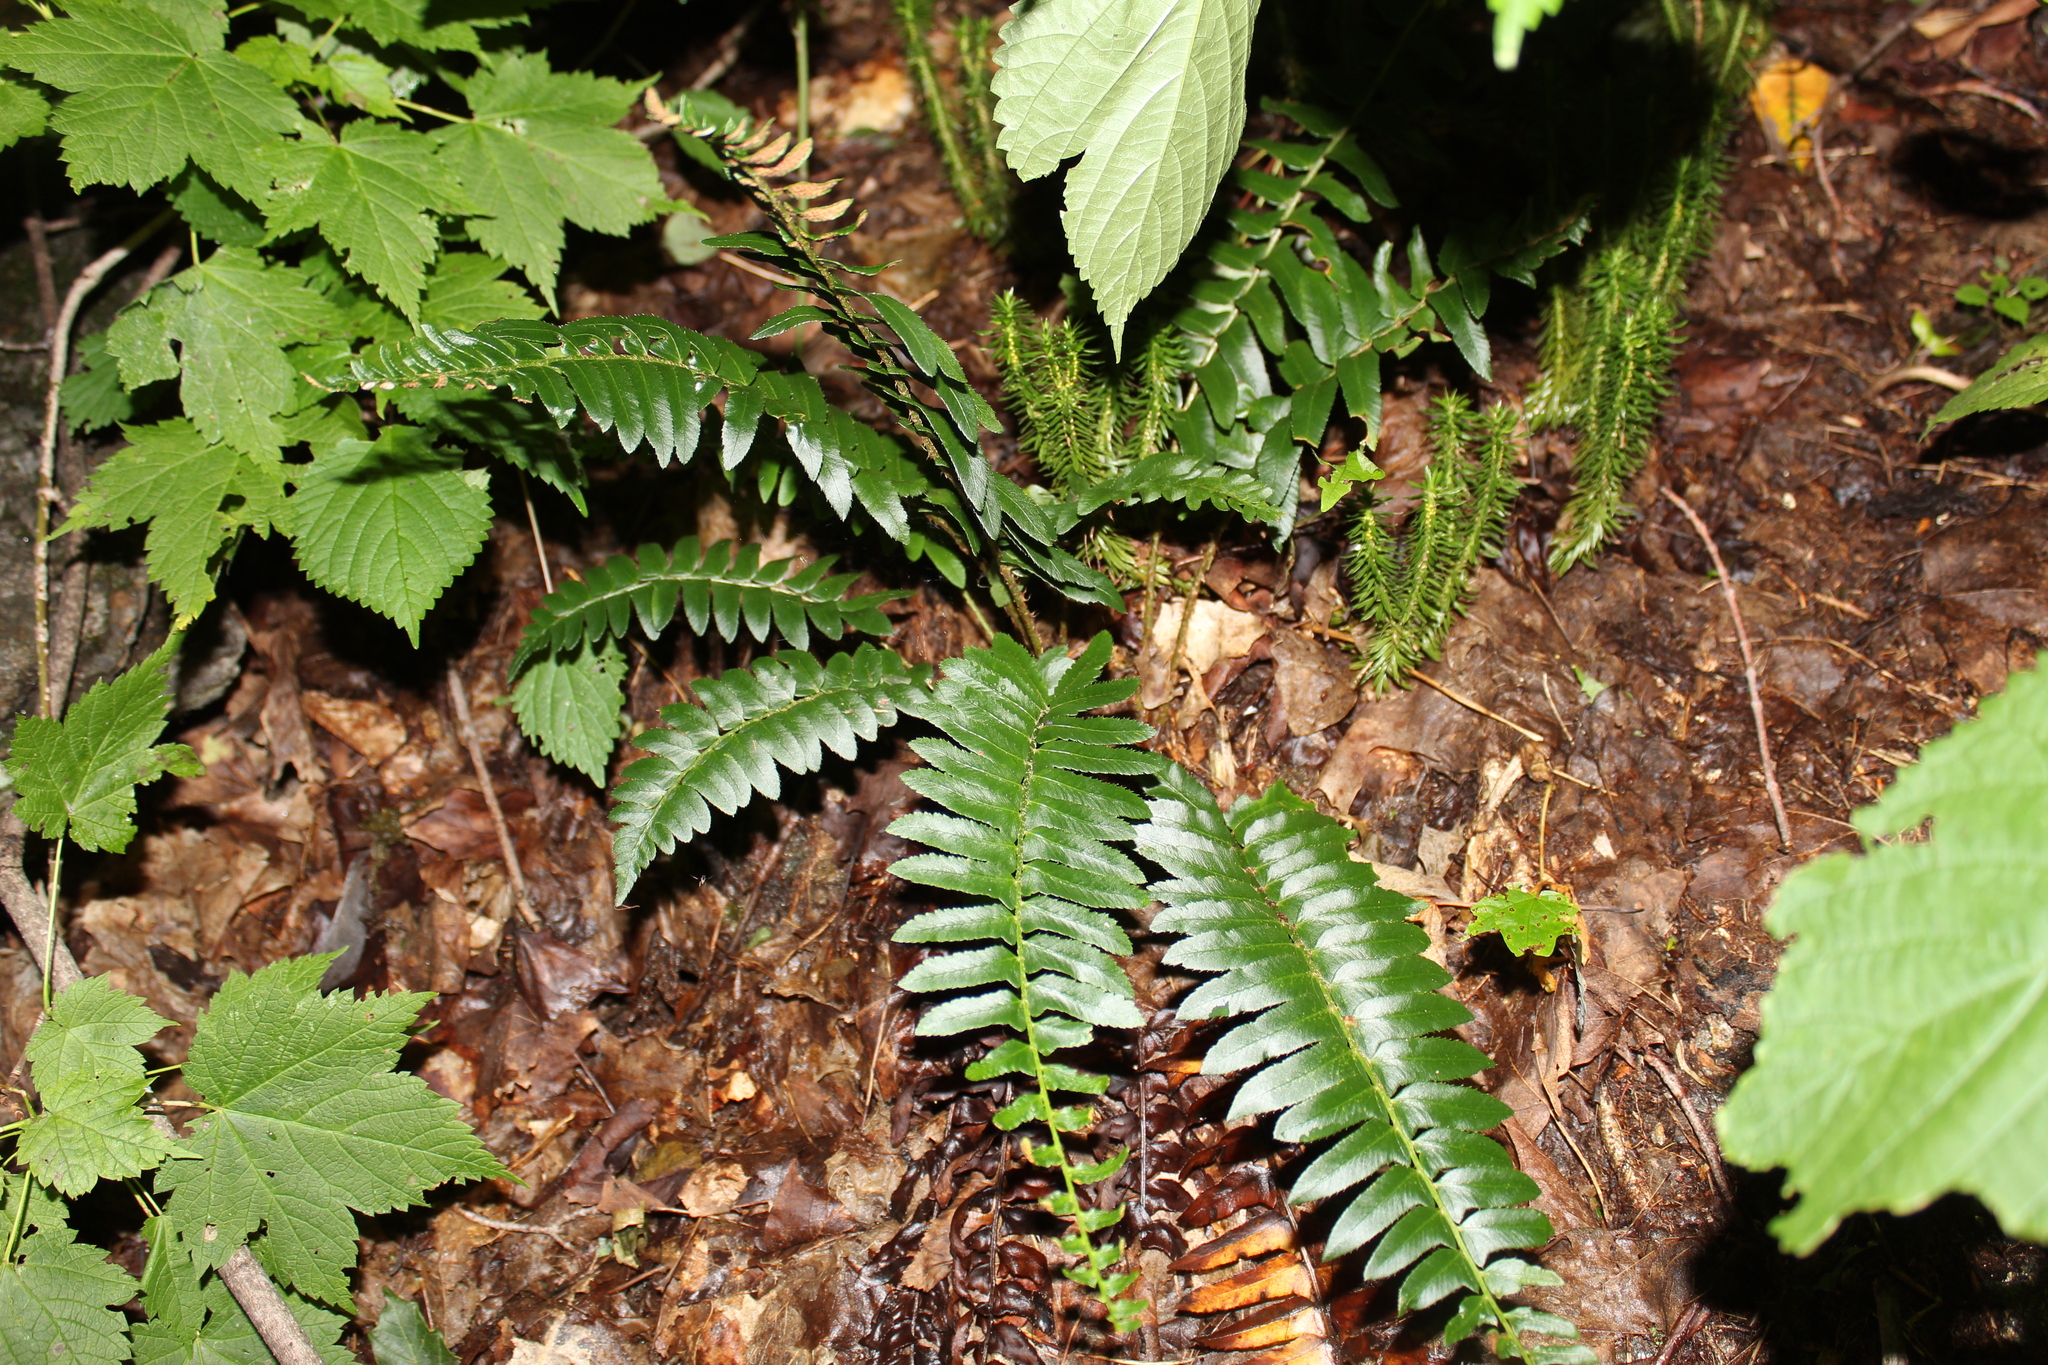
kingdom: Plantae
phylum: Tracheophyta
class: Lycopodiopsida
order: Lycopodiales
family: Lycopodiaceae
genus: Huperzia
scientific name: Huperzia lucidula
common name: Shining clubmoss
